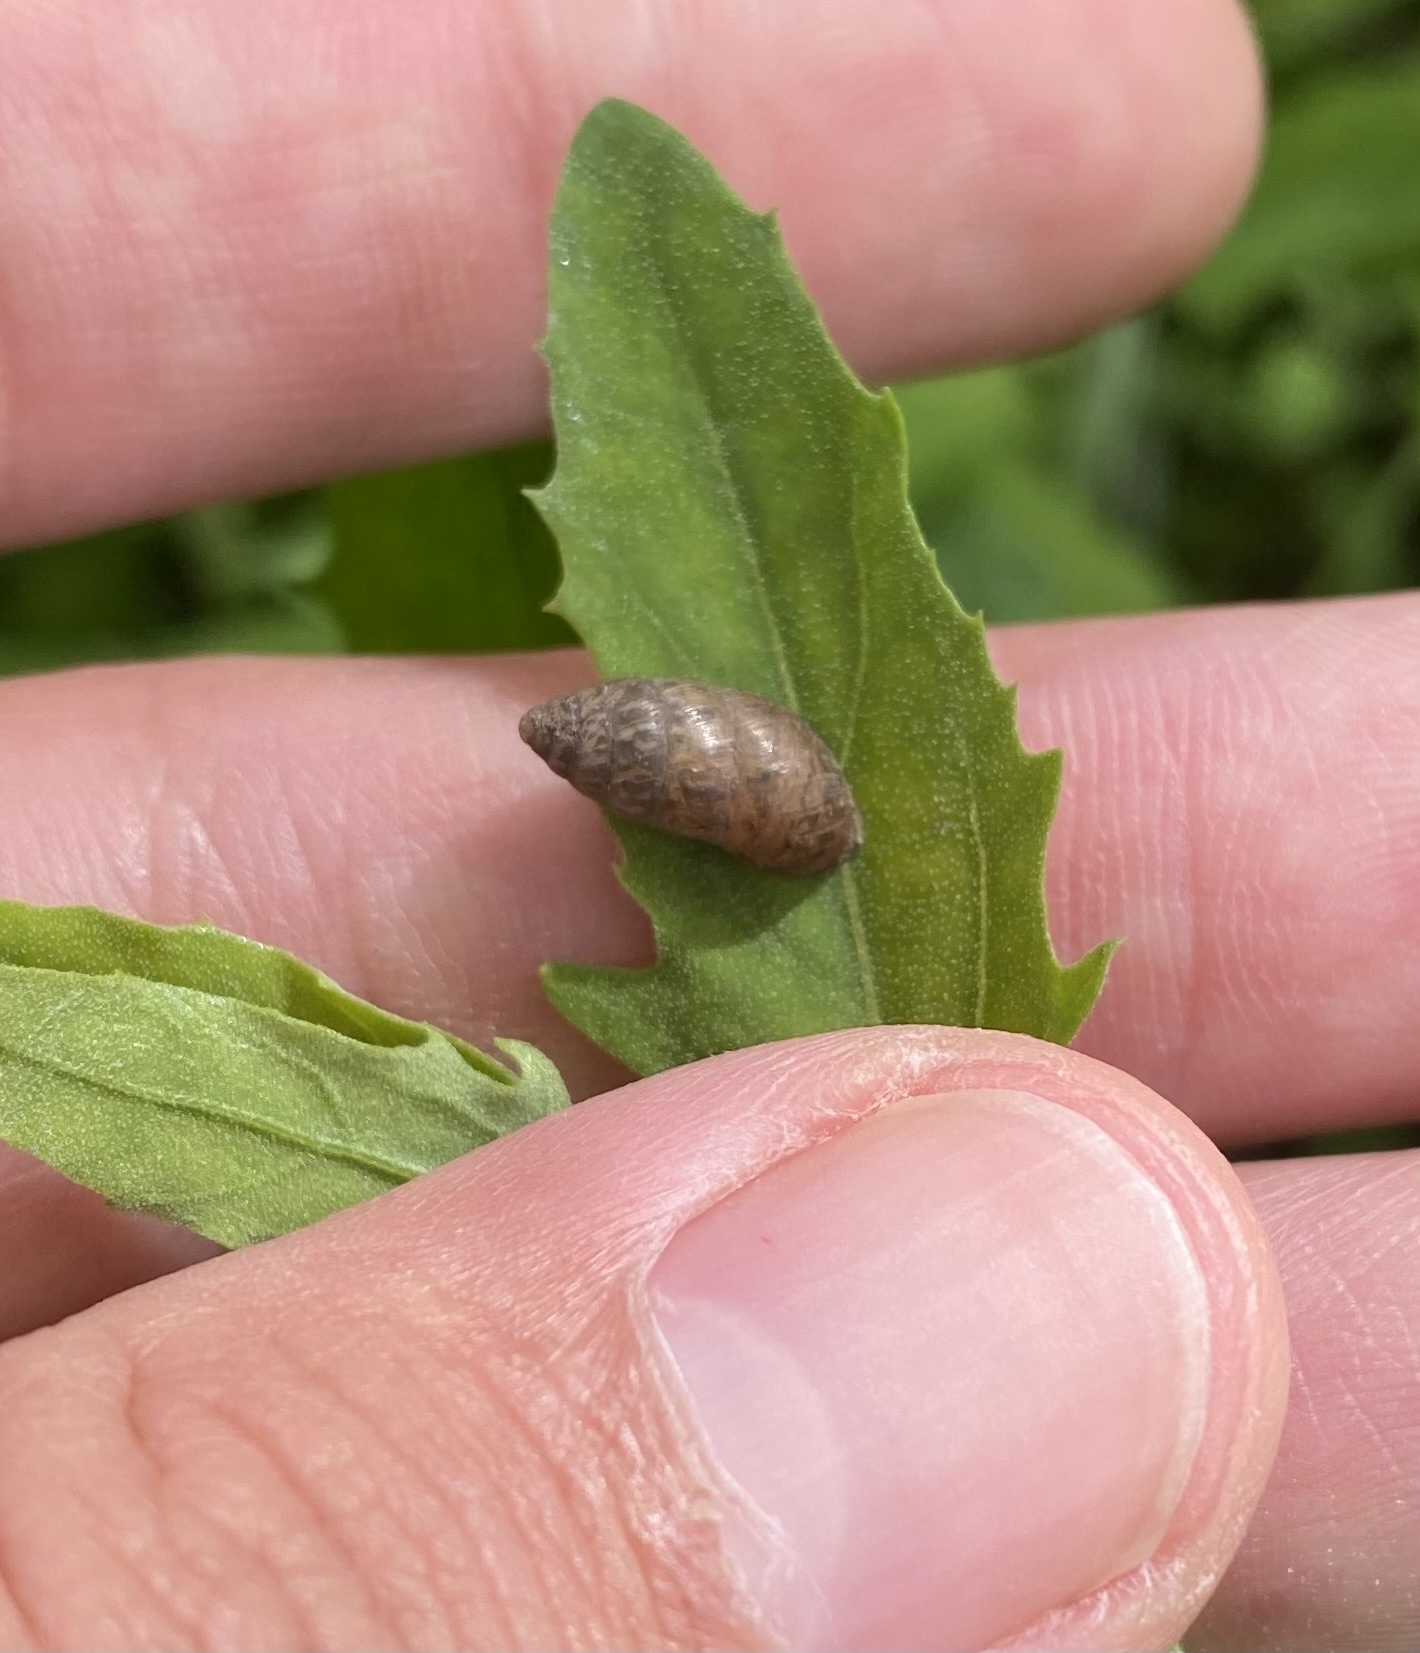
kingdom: Animalia
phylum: Mollusca
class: Gastropoda
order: Stylommatophora
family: Enidae
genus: Chondrula
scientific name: Chondrula tridens
